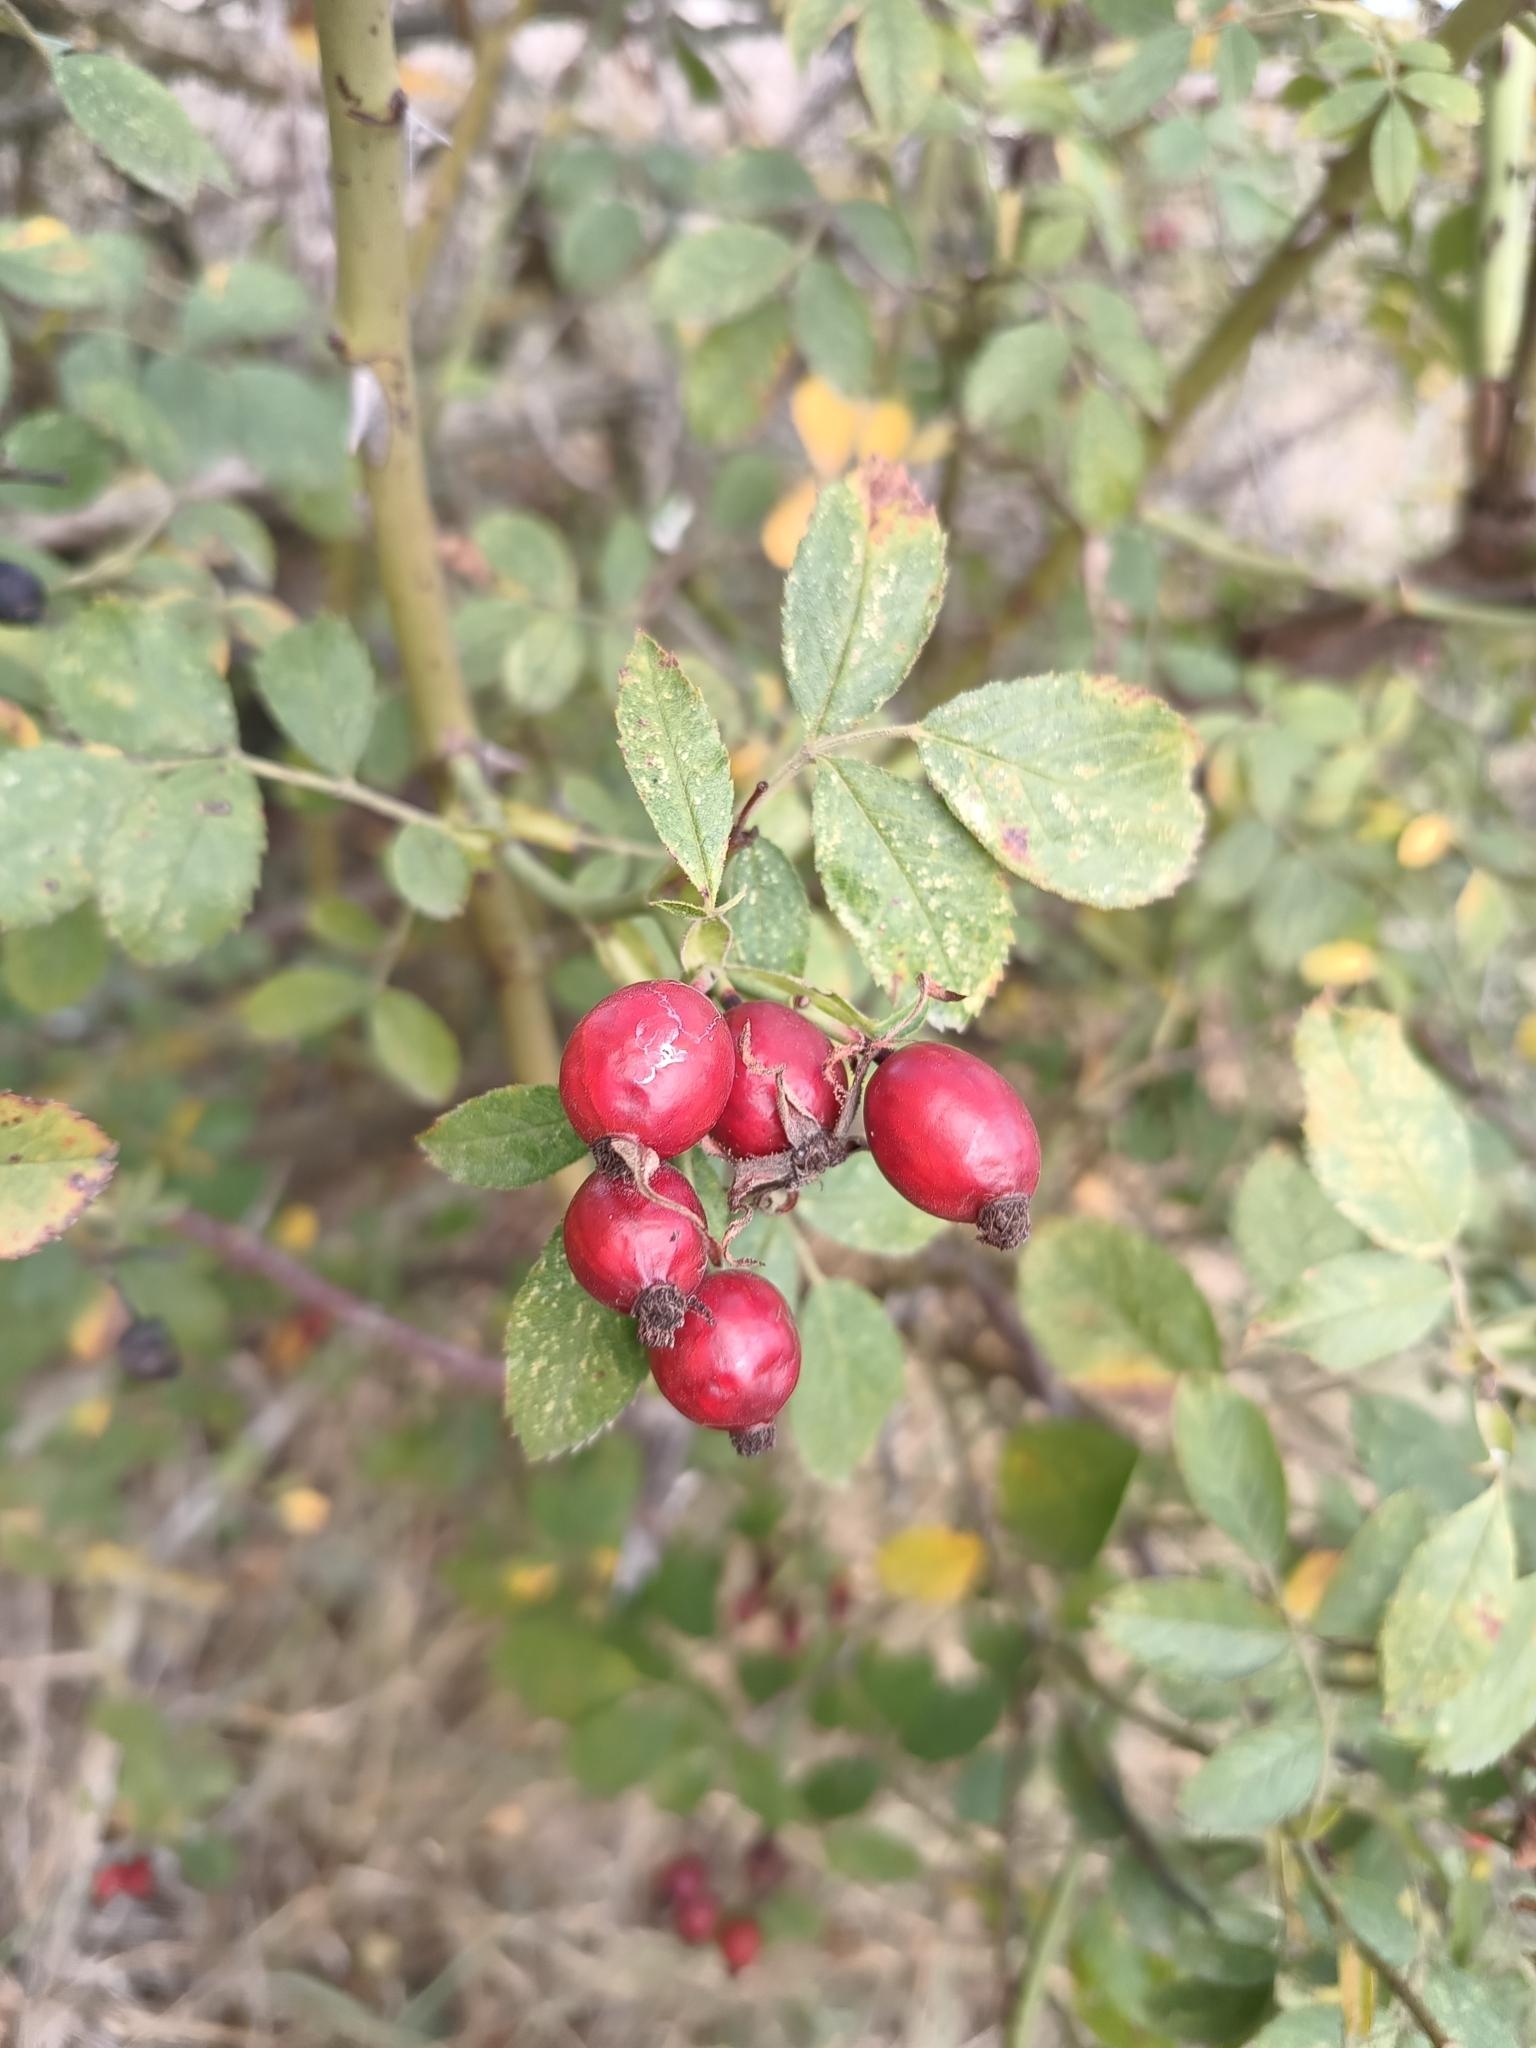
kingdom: Plantae
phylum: Tracheophyta
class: Magnoliopsida
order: Rosales
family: Rosaceae
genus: Rosa
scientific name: Rosa agrestis
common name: Fieldbriar
